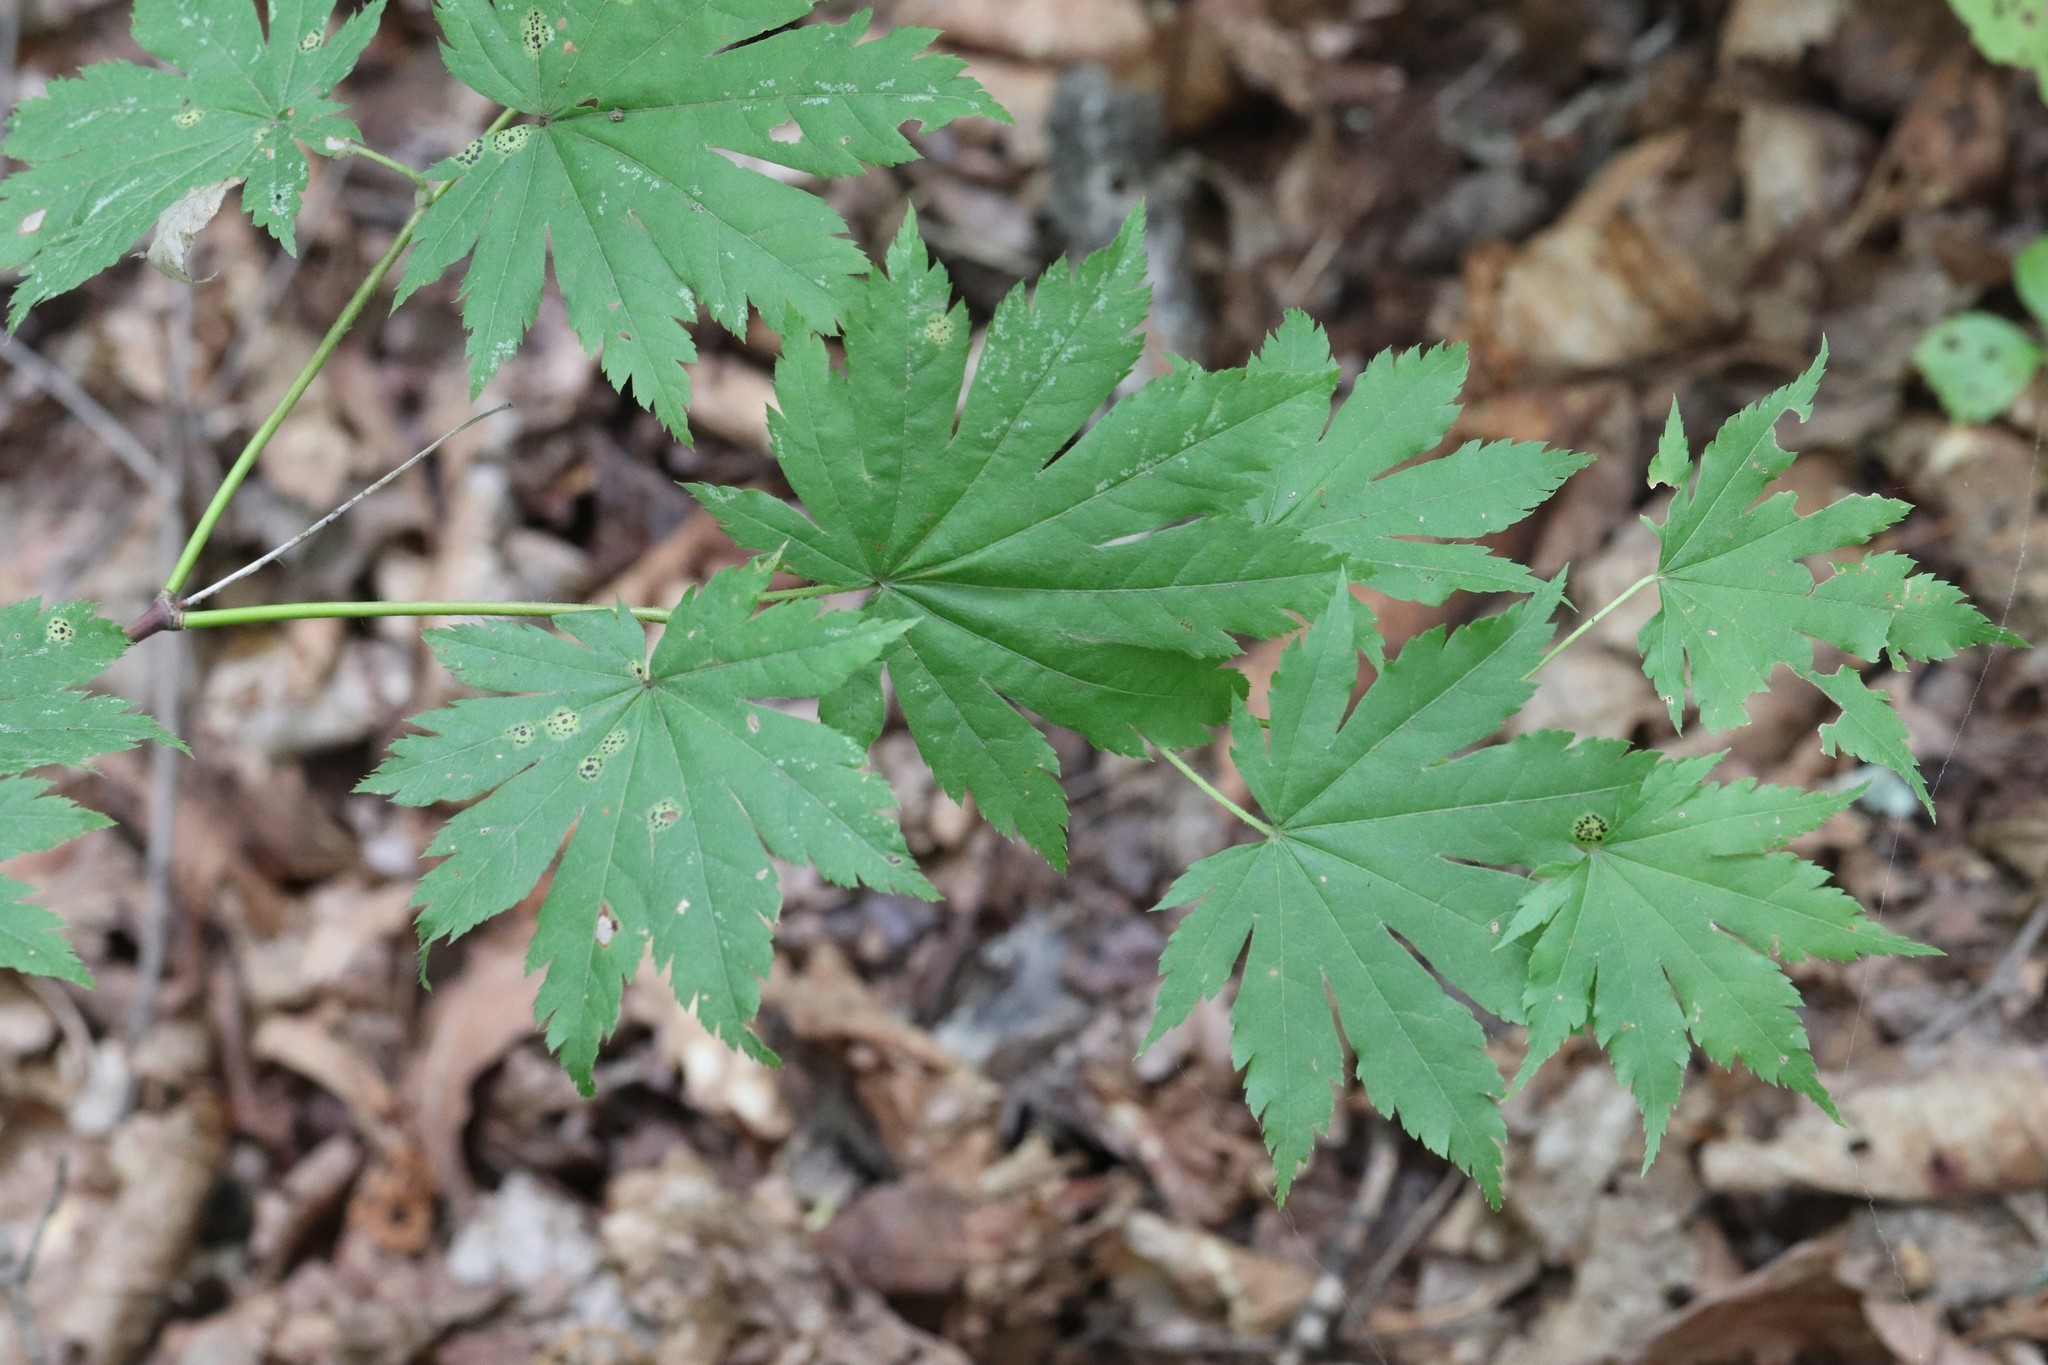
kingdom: Plantae
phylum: Tracheophyta
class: Magnoliopsida
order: Sapindales
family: Sapindaceae
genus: Acer
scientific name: Acer pseudosieboldianum
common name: Korean maple
